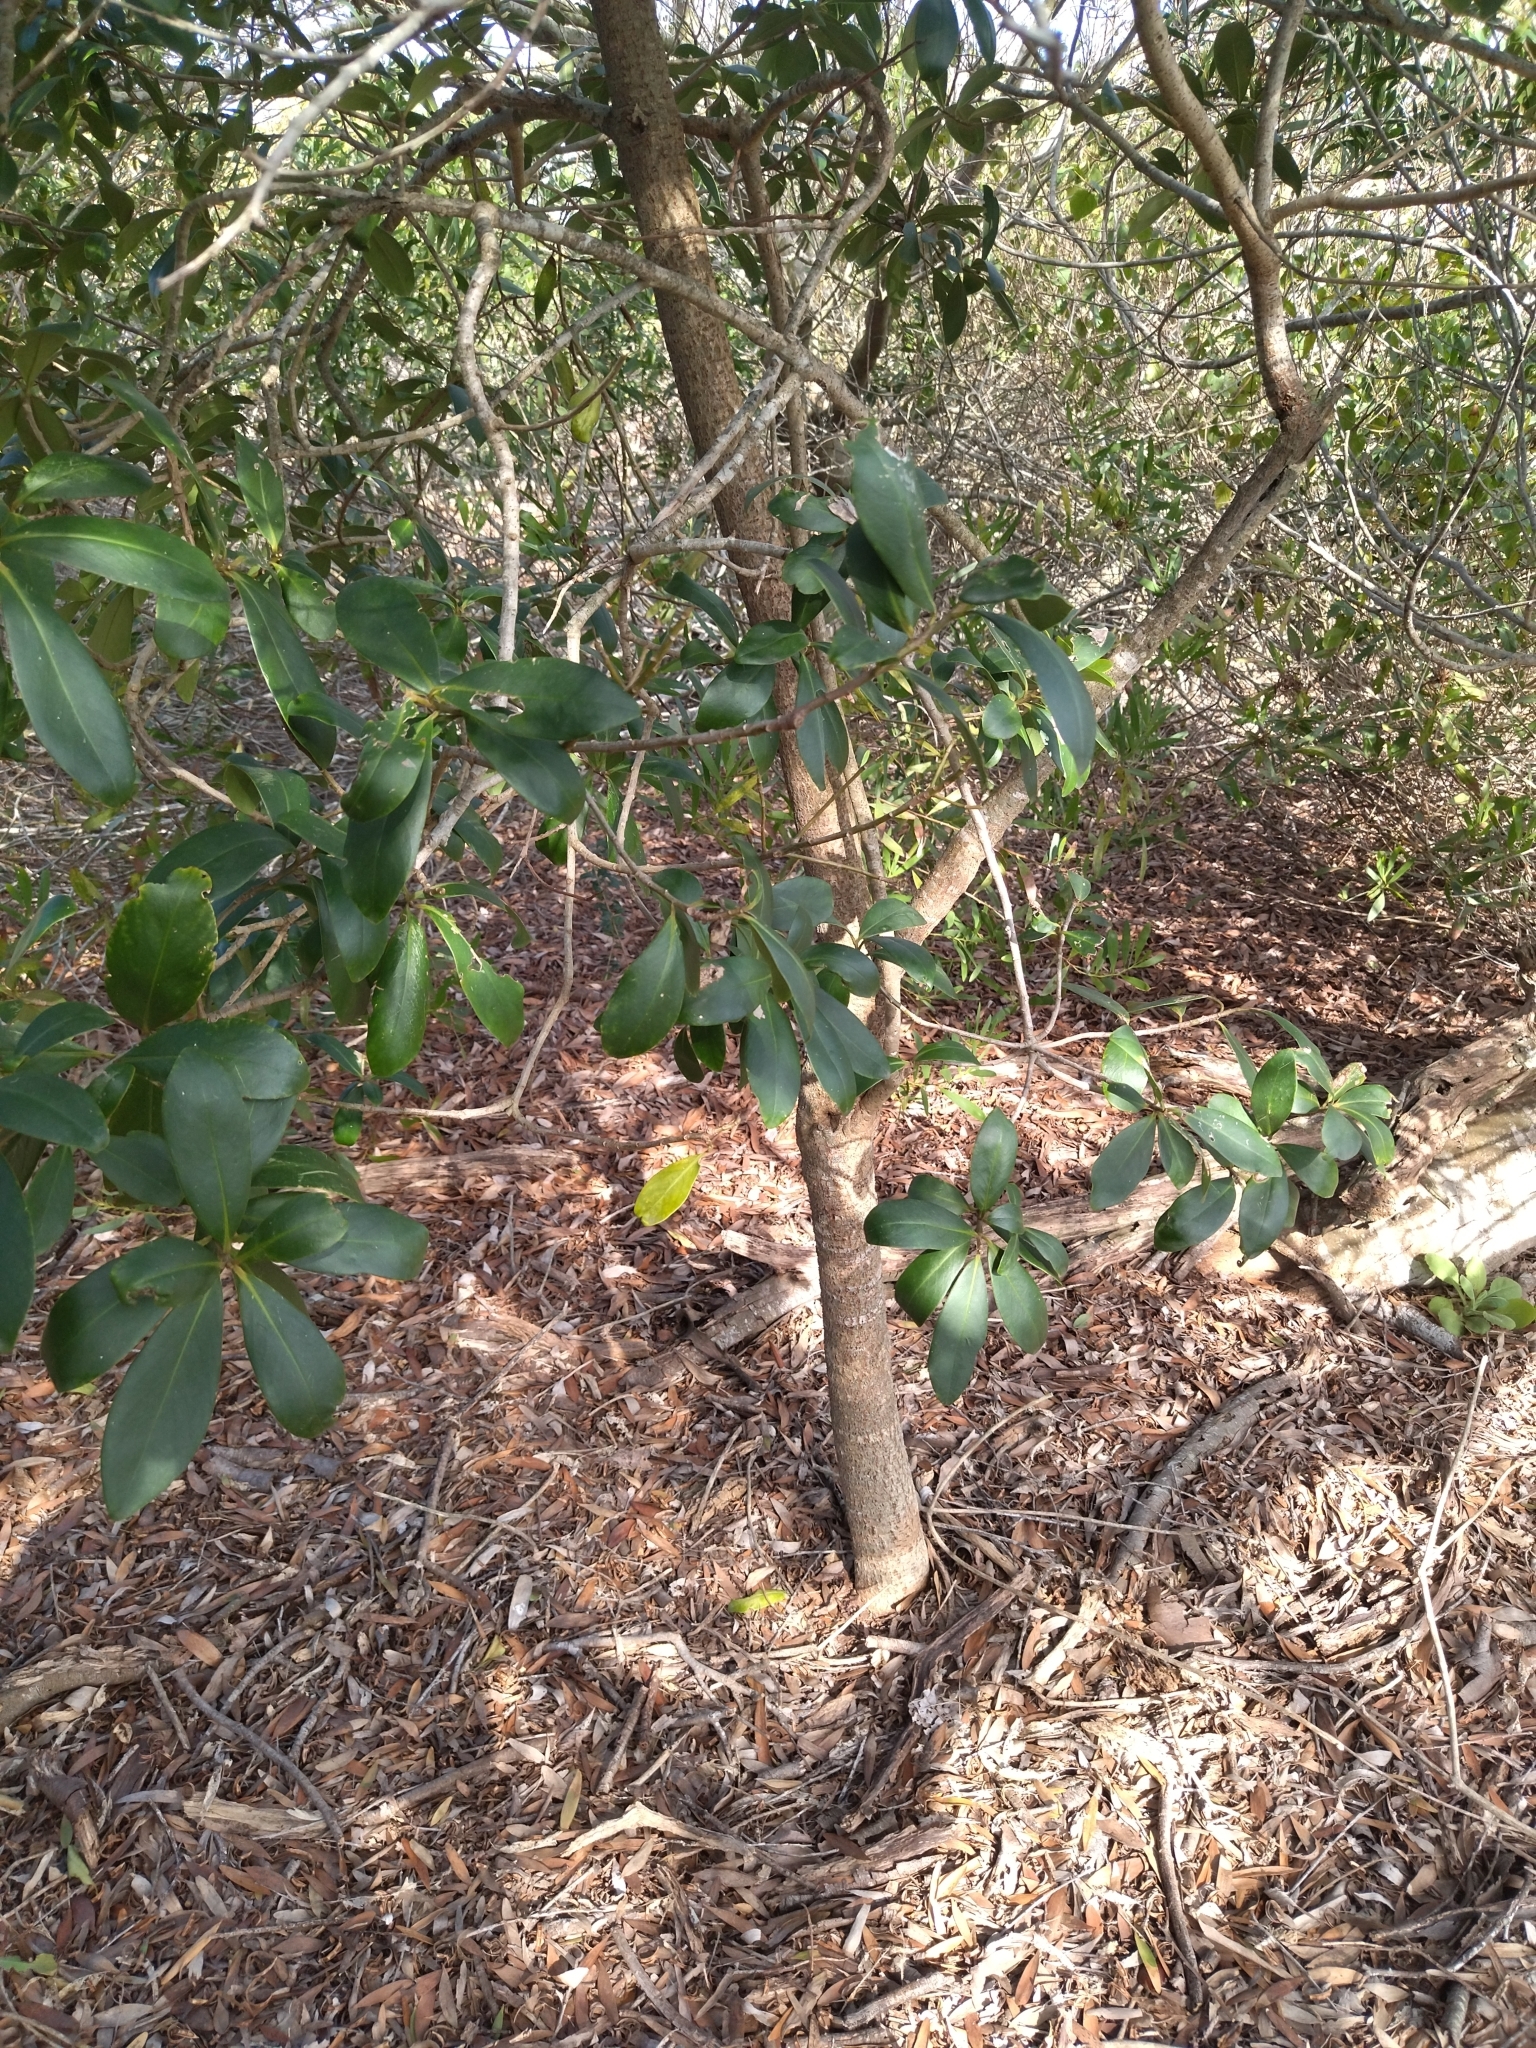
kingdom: Plantae
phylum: Tracheophyta
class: Magnoliopsida
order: Ericales
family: Primulaceae
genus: Myrsine
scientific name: Myrsine laetevirens
